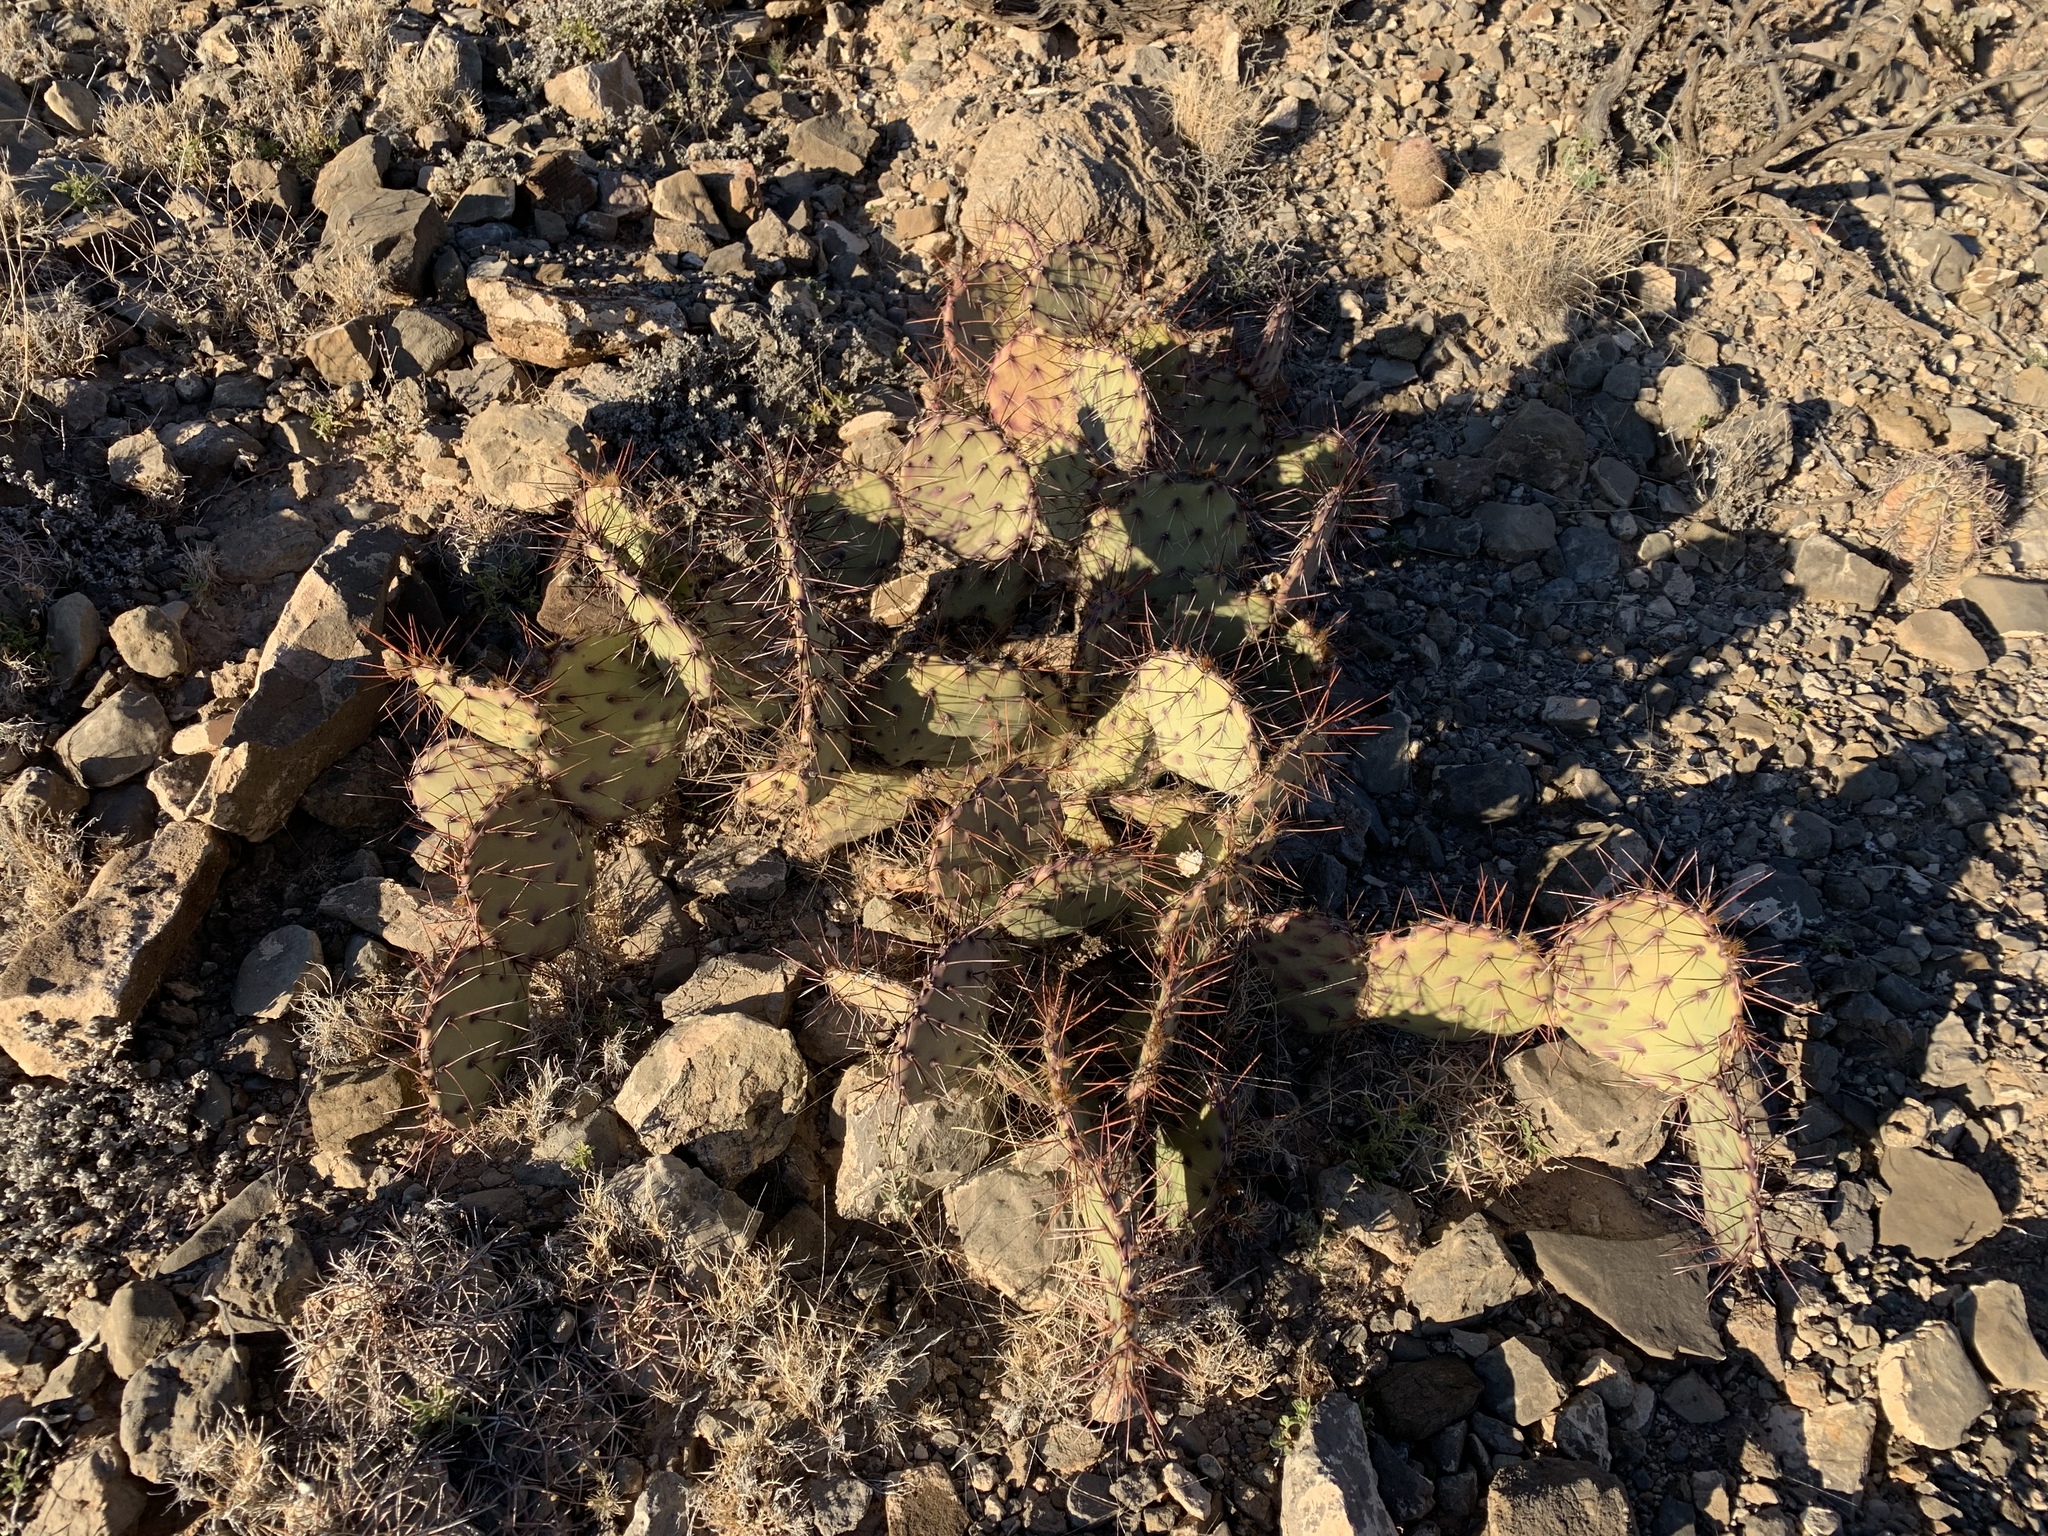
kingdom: Plantae
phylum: Tracheophyta
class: Magnoliopsida
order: Caryophyllales
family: Cactaceae
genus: Opuntia
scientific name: Opuntia phaeacantha
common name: New mexico prickly-pear
